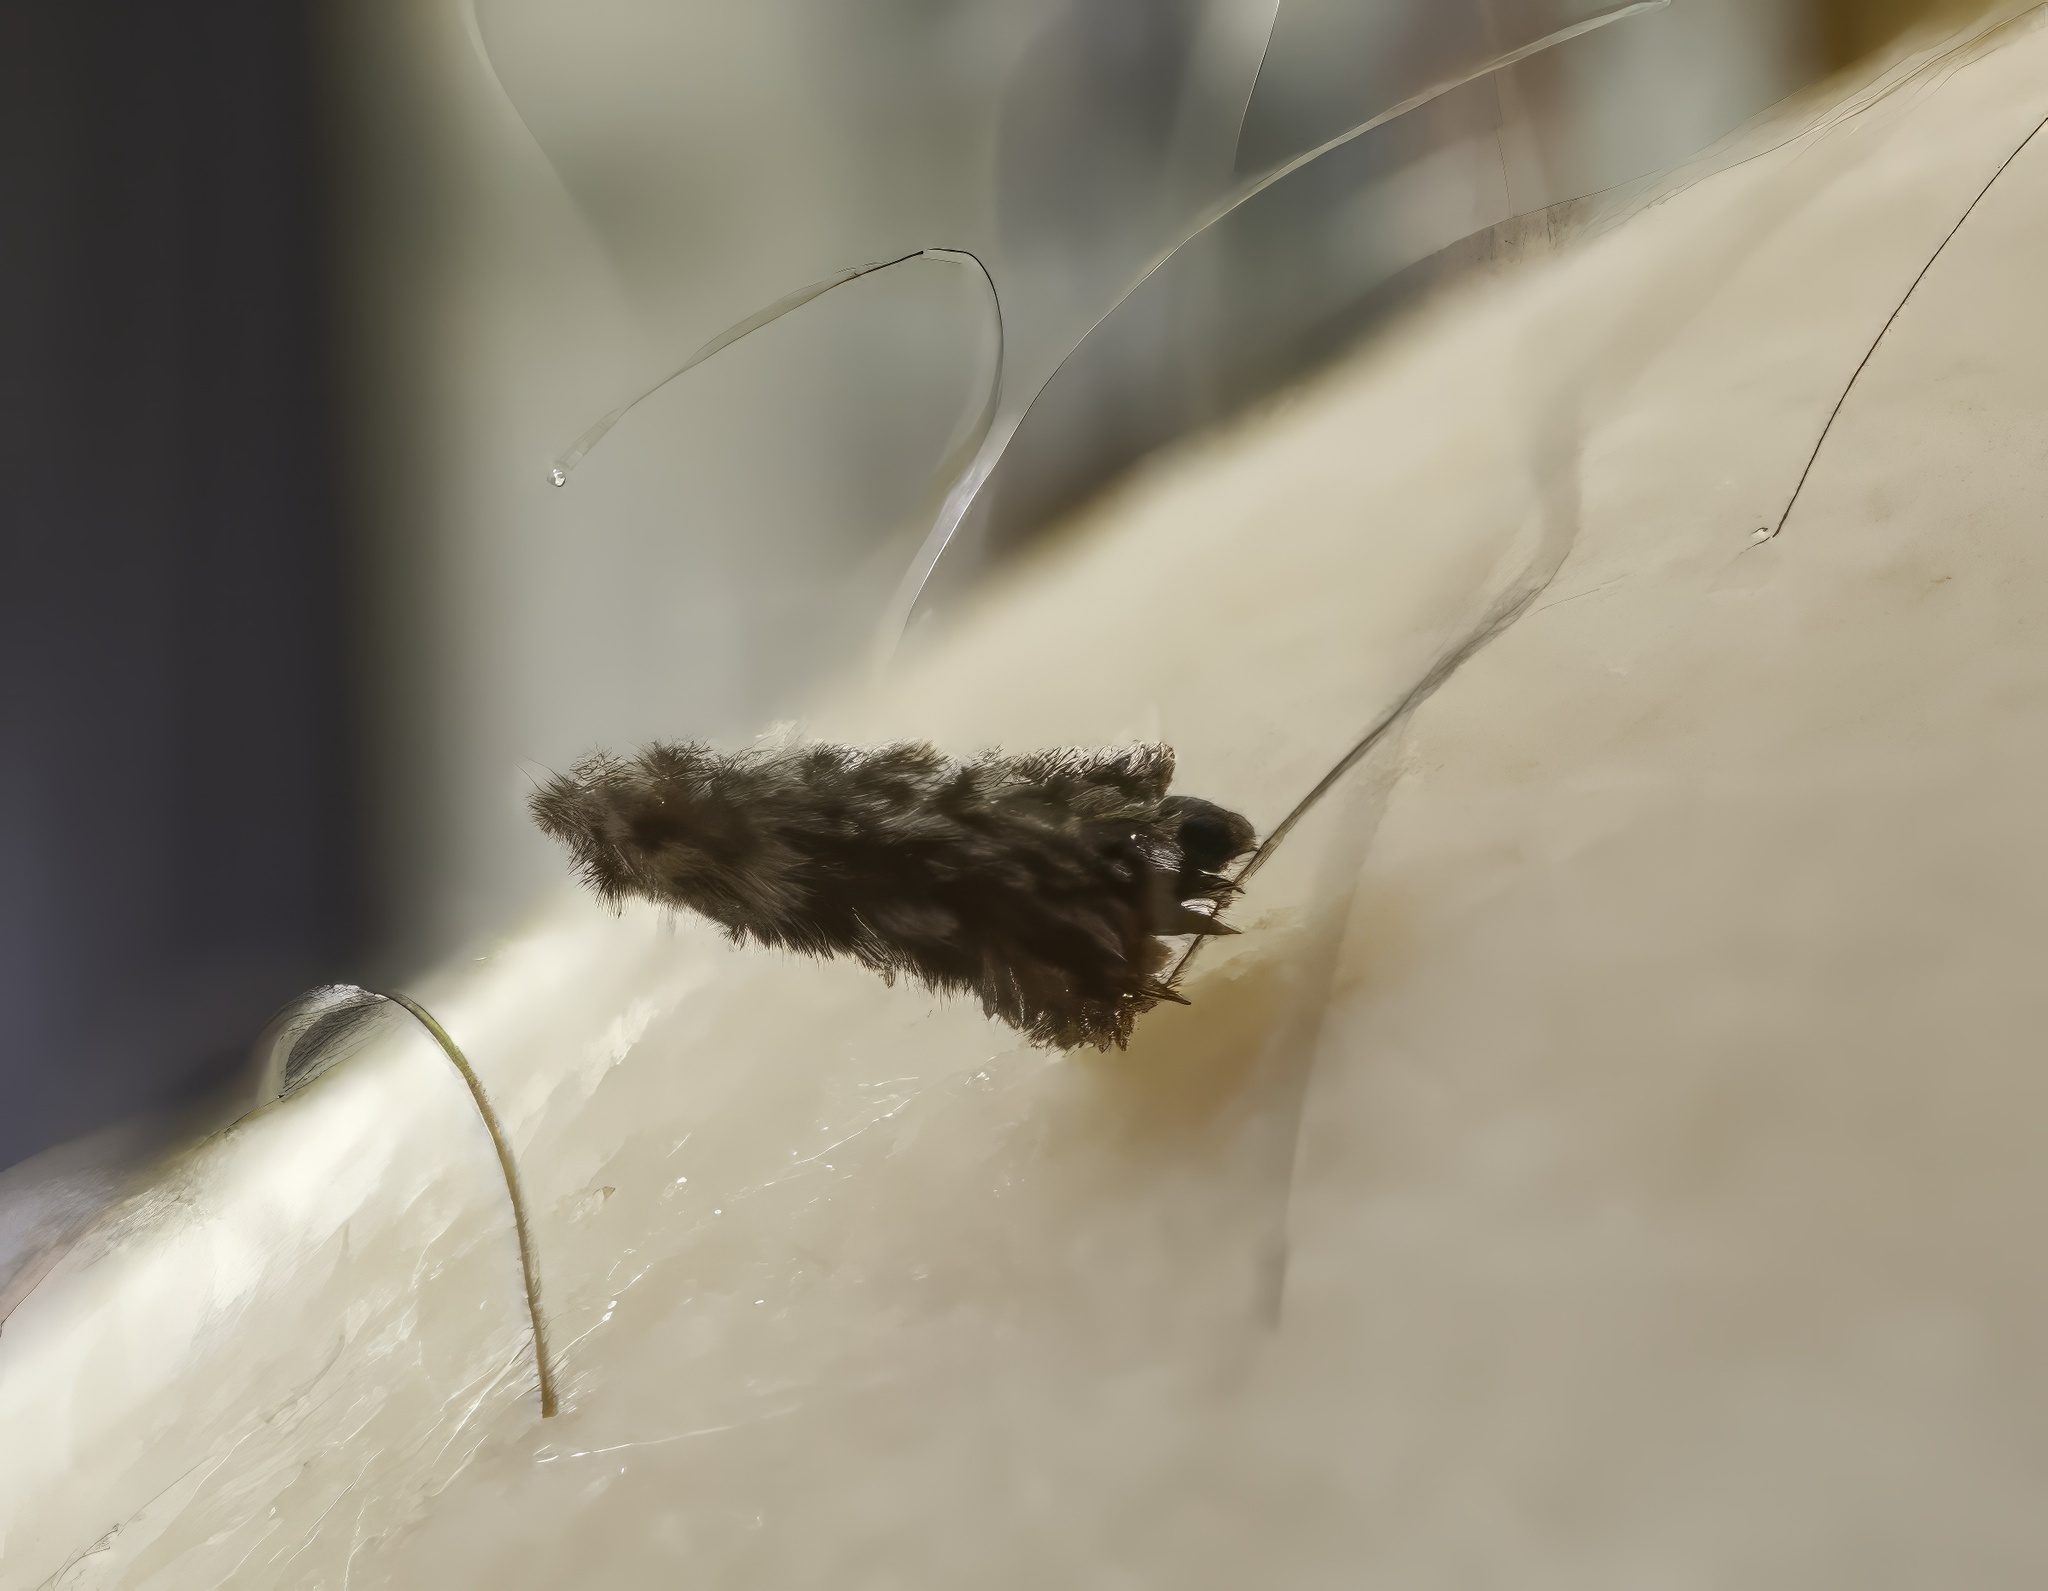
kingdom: Animalia
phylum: Arthropoda
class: Insecta
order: Lepidoptera
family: Psychidae
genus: Liothula
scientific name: Liothula omnivora
